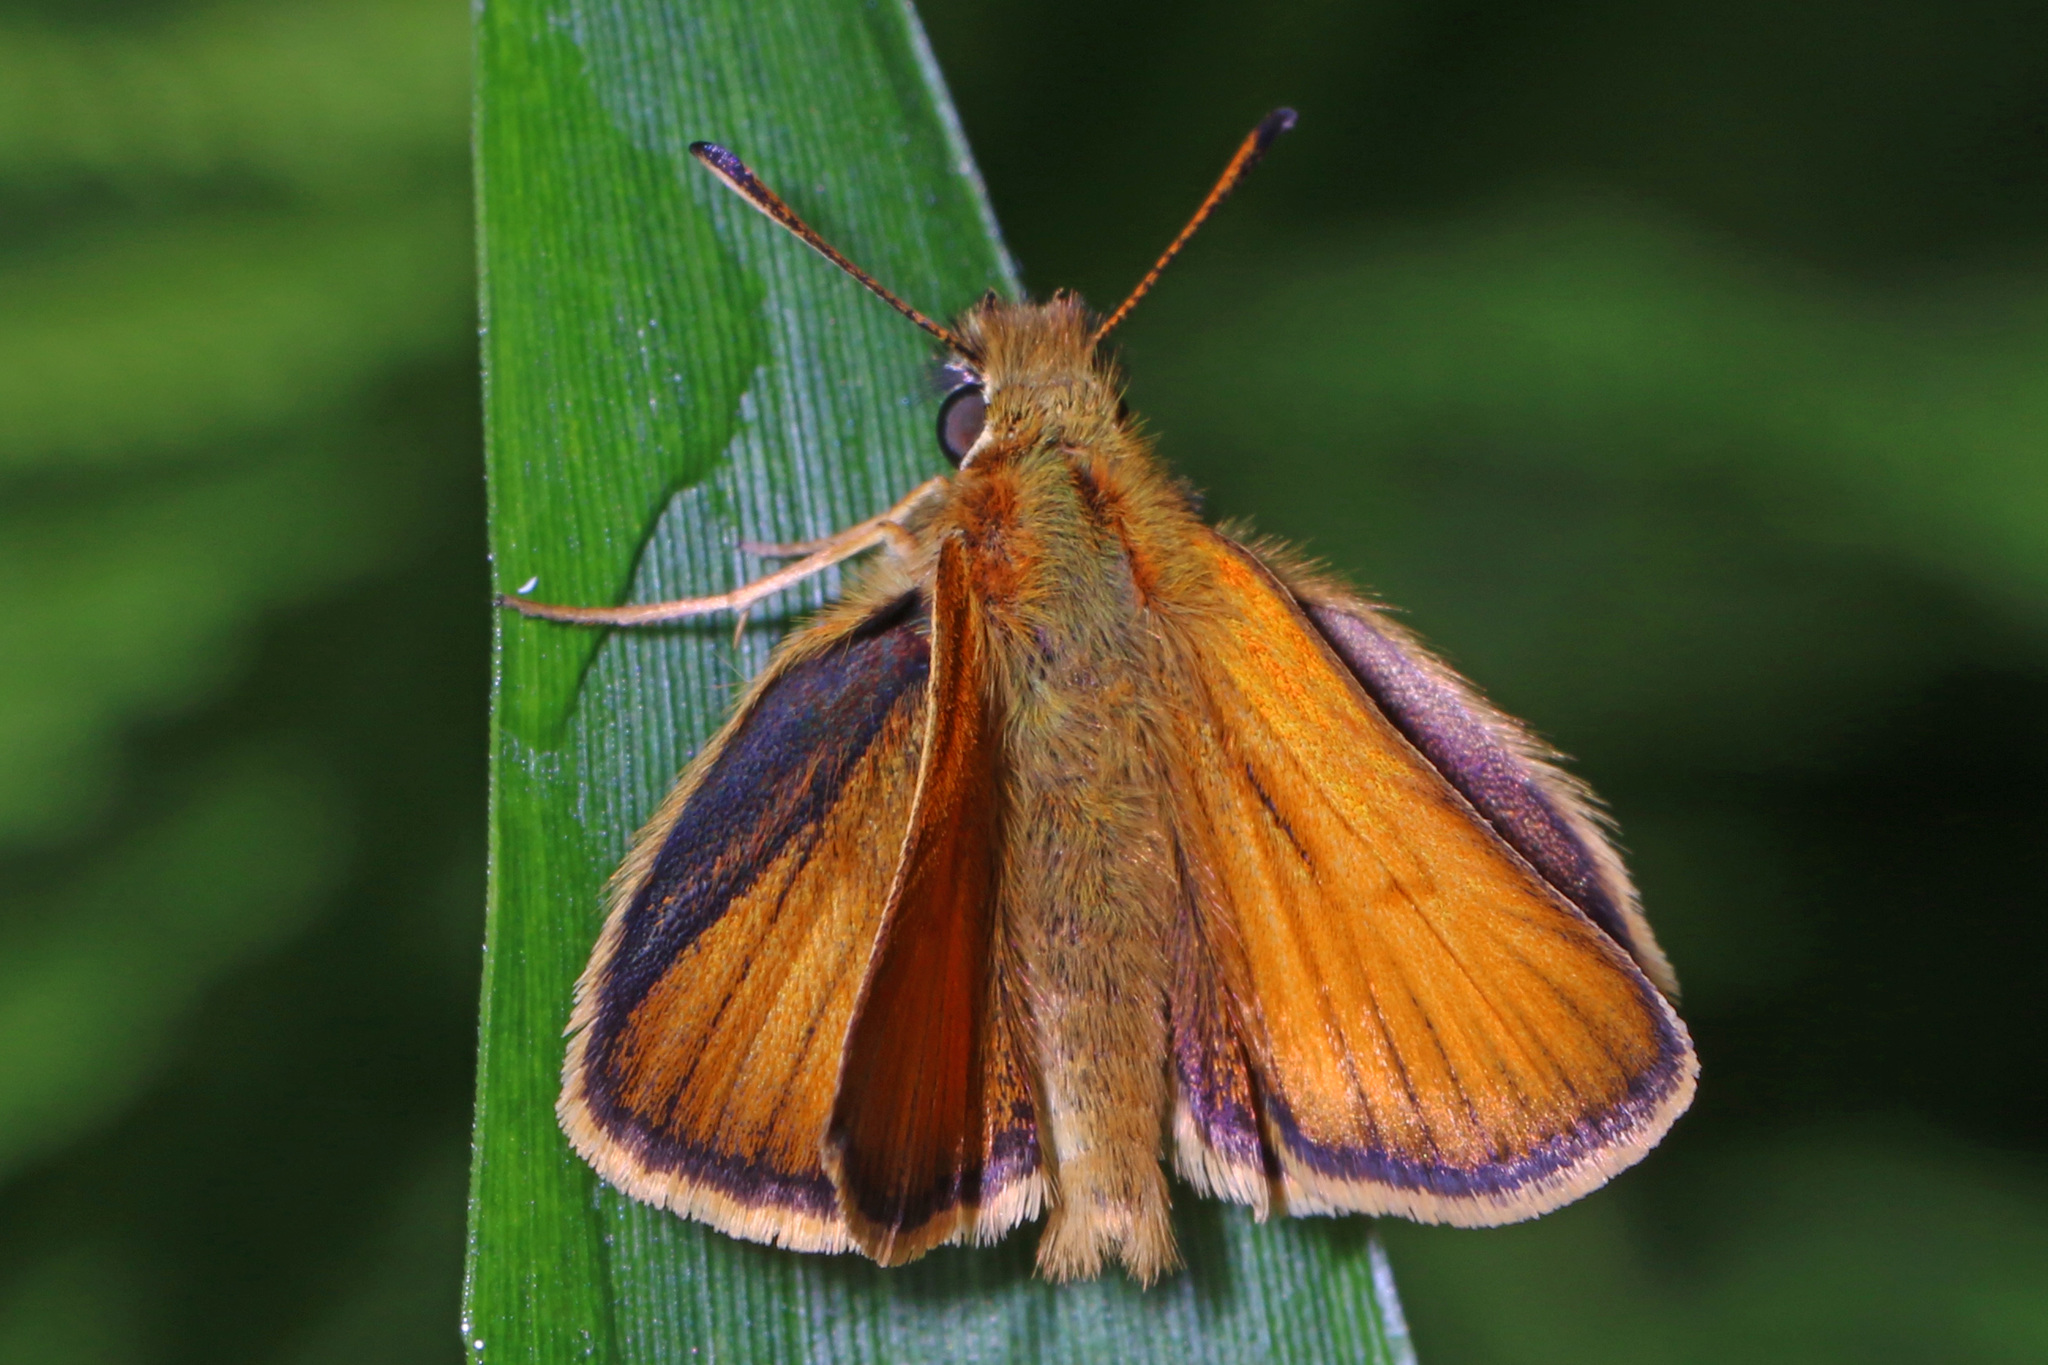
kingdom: Animalia
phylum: Arthropoda
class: Insecta
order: Lepidoptera
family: Hesperiidae
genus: Thymelicus
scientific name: Thymelicus lineola
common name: Essex skipper
